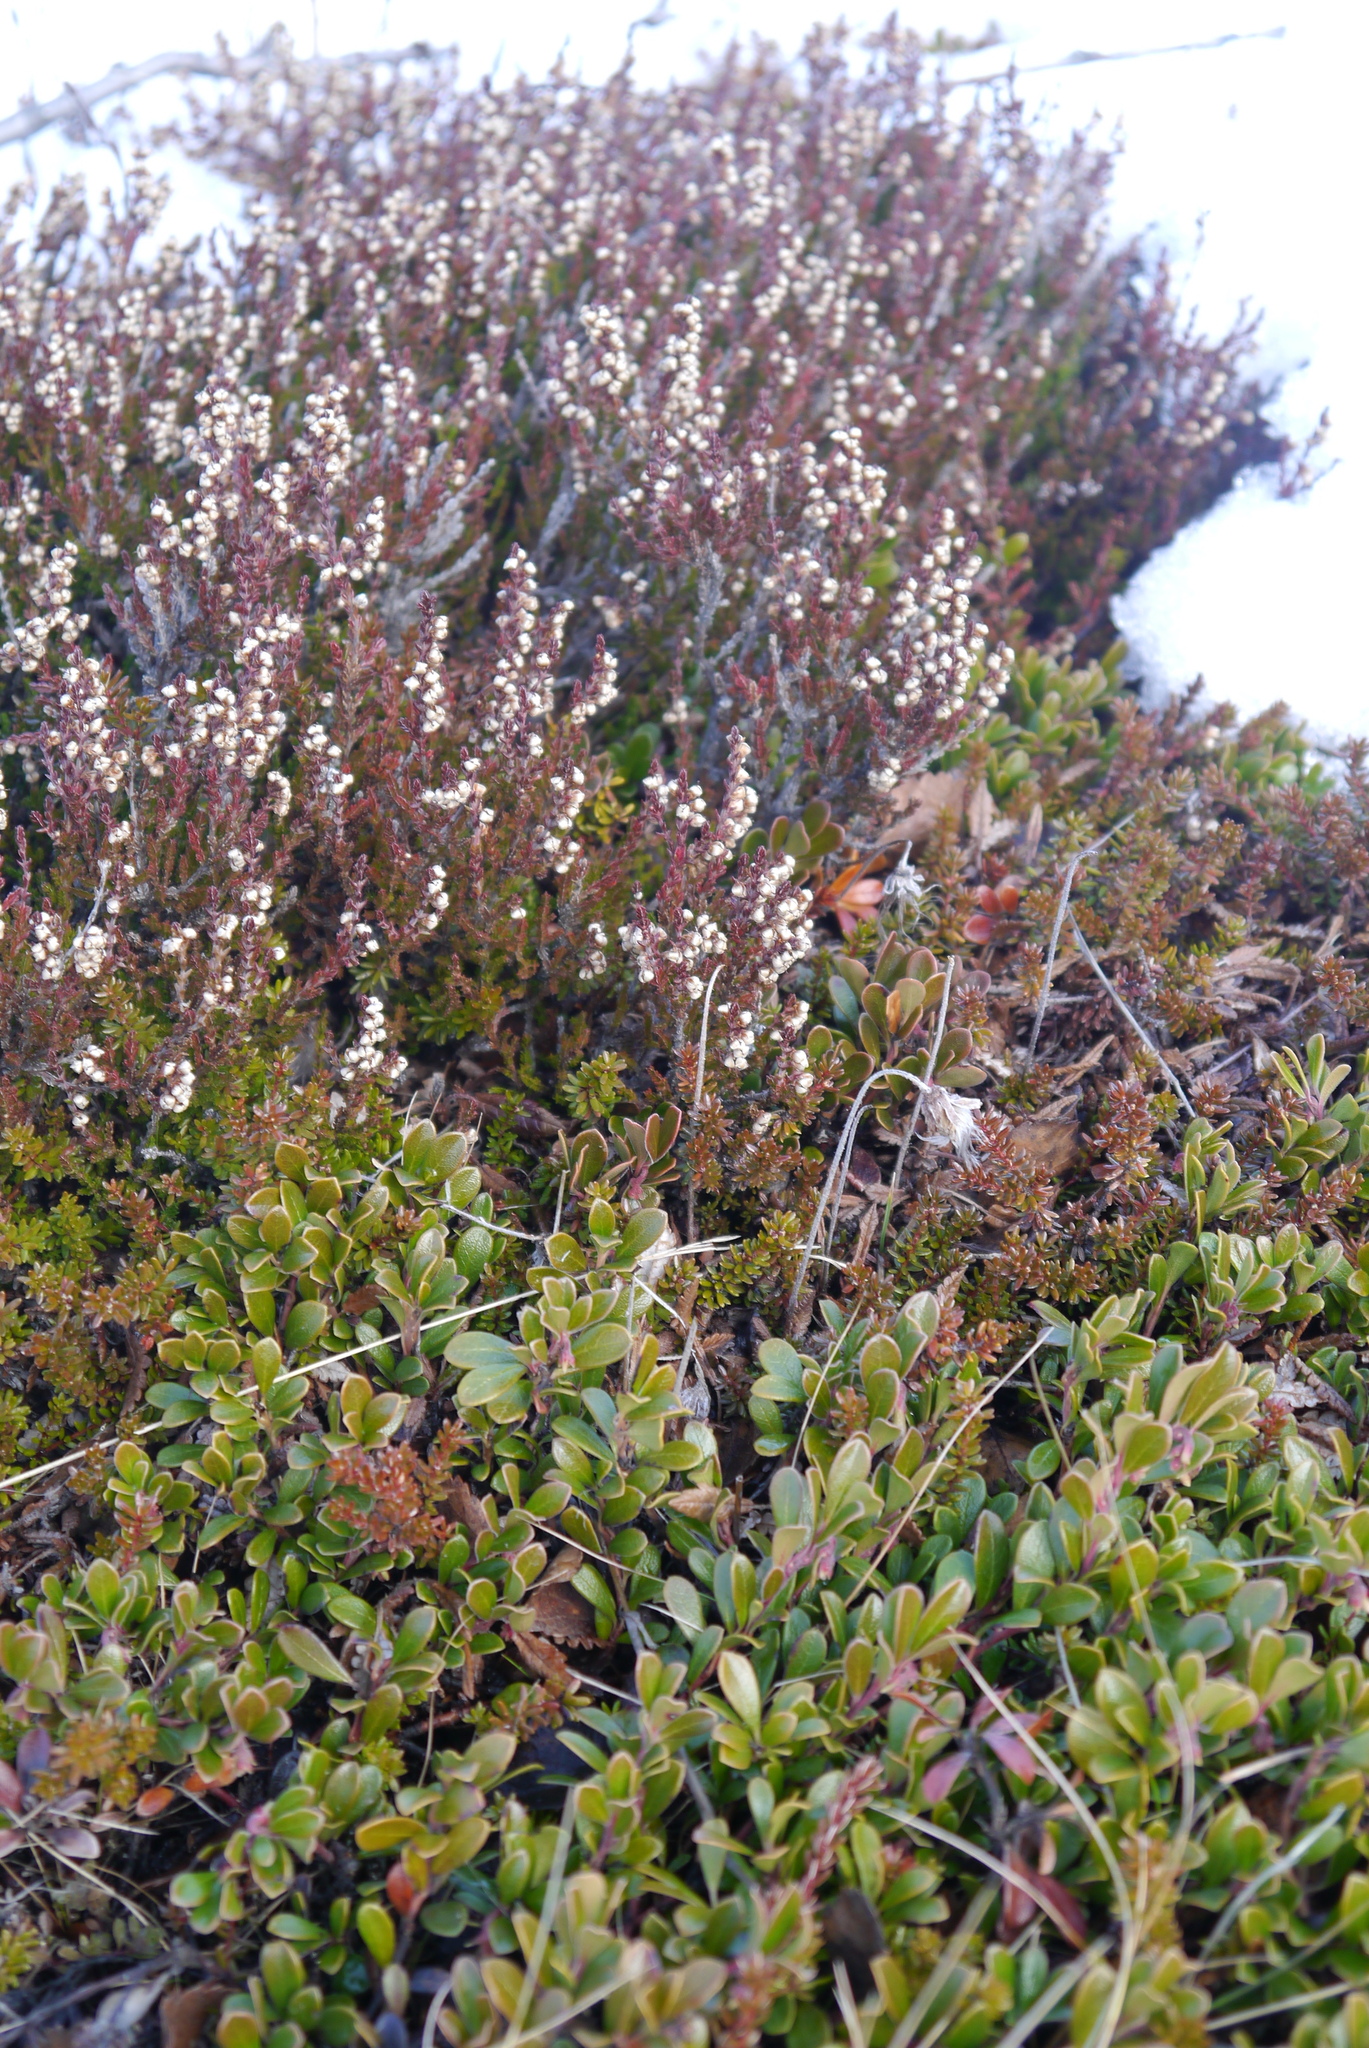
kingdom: Plantae
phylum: Tracheophyta
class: Magnoliopsida
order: Ericales
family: Ericaceae
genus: Calluna
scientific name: Calluna vulgaris
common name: Heather
